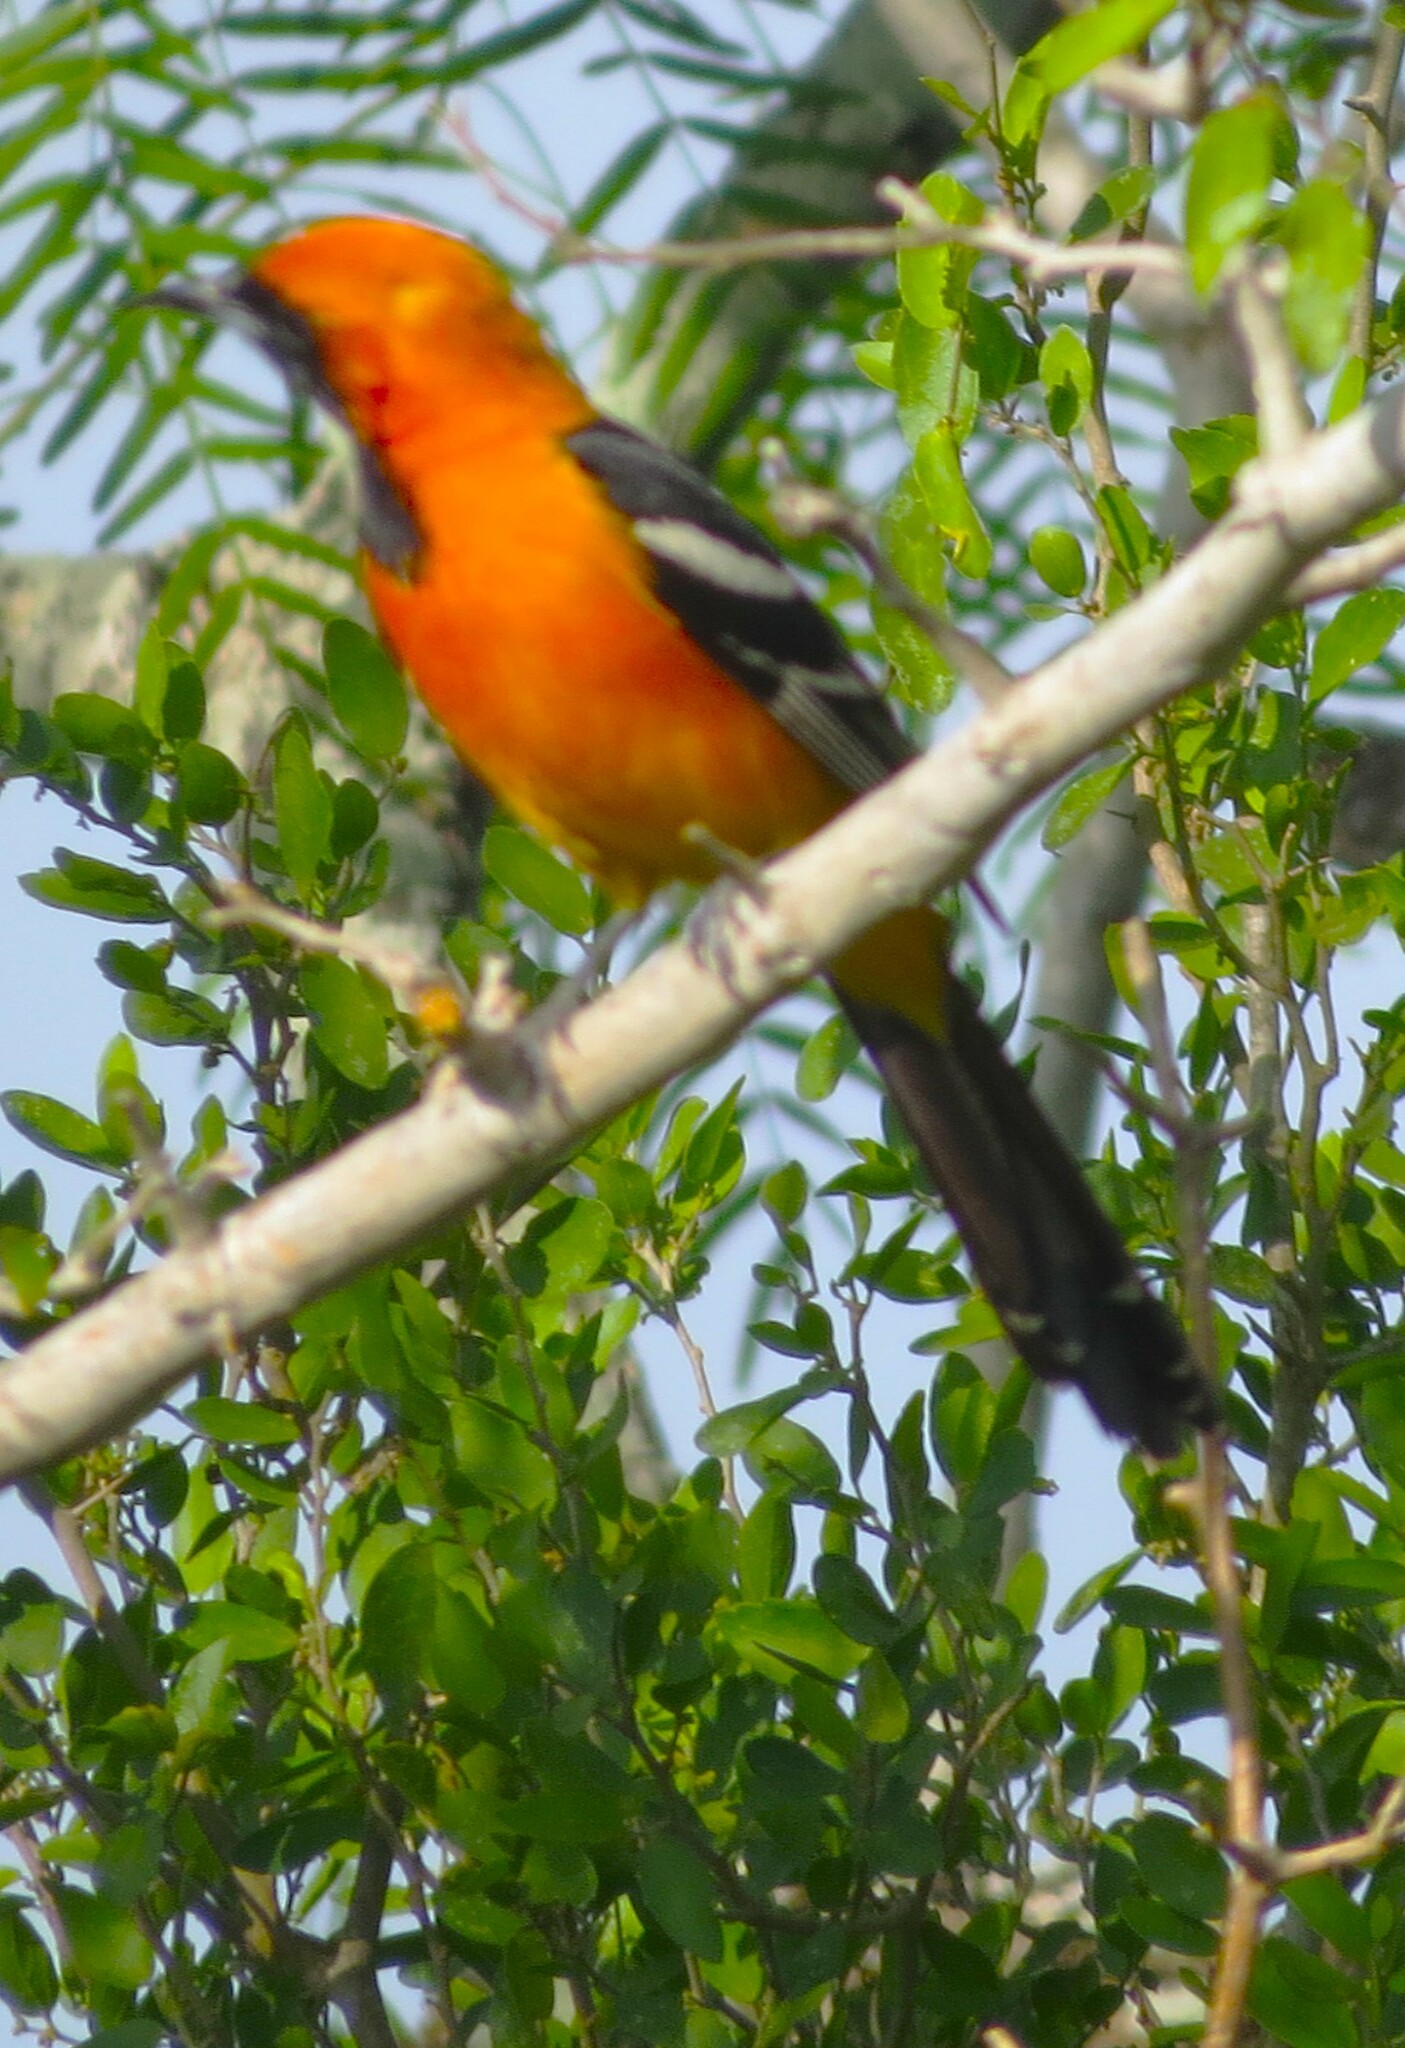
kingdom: Animalia
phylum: Chordata
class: Aves
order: Passeriformes
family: Icteridae
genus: Icterus
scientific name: Icterus cucullatus
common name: Hooded oriole
